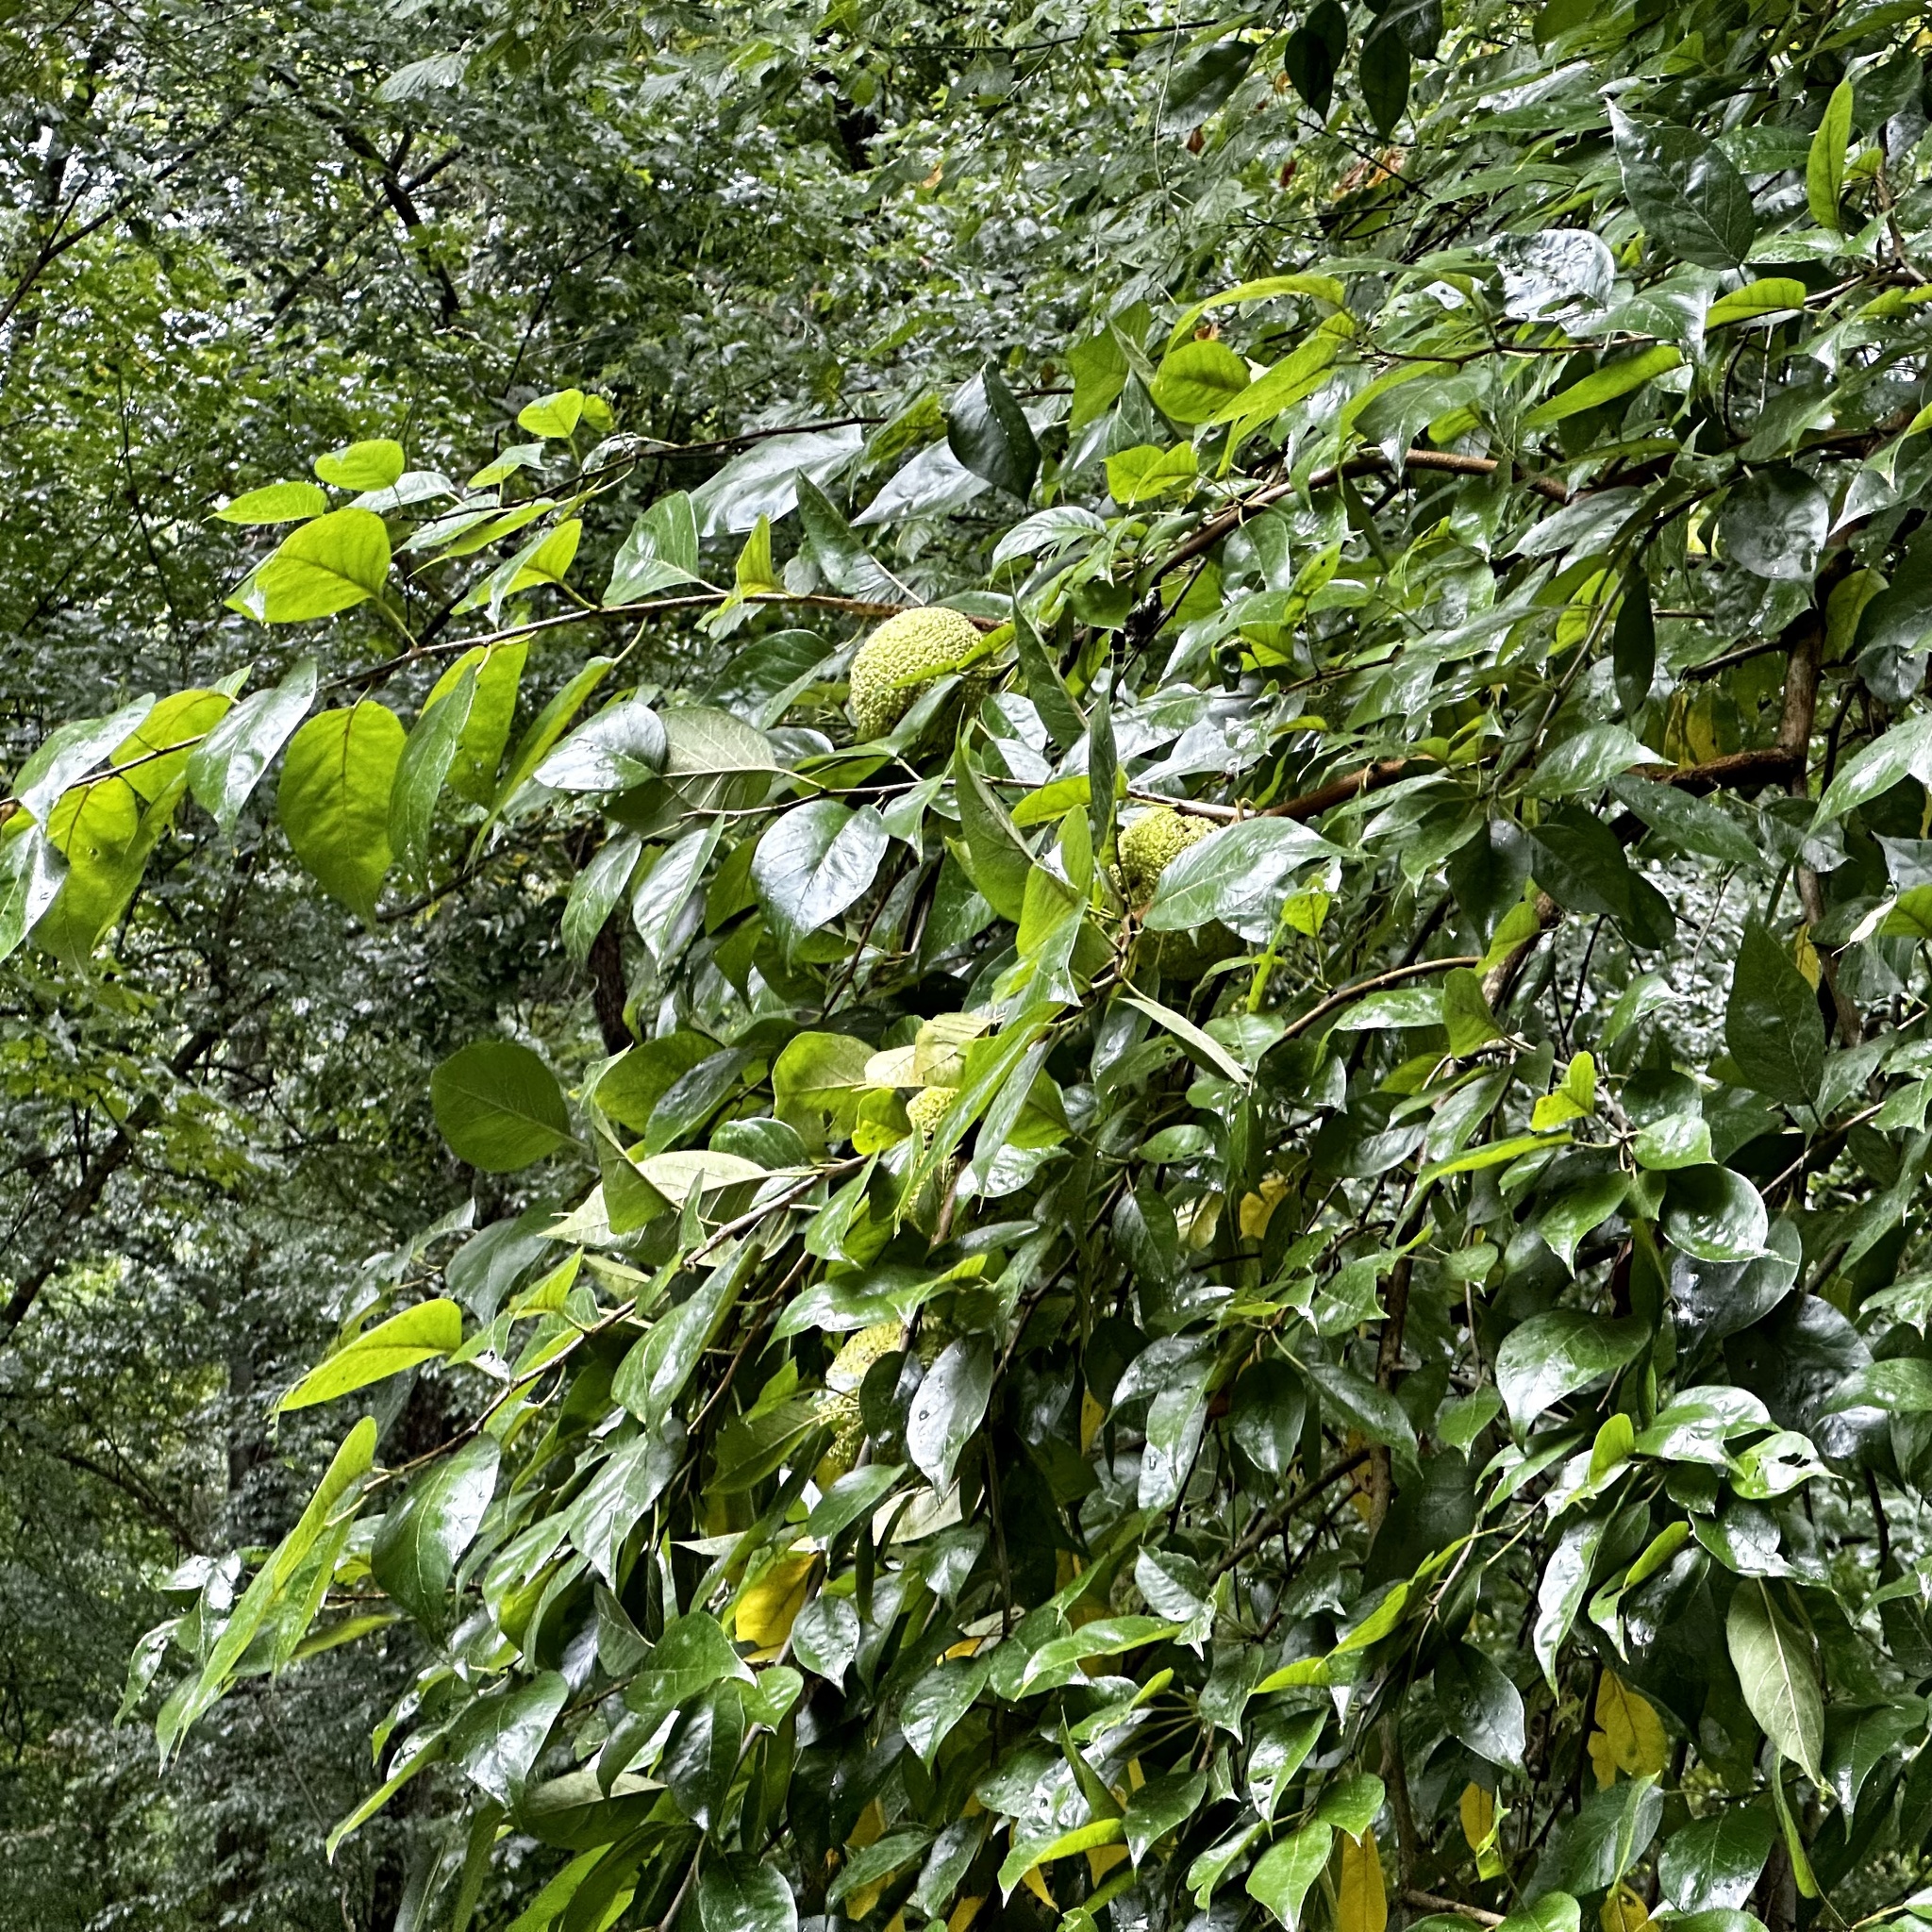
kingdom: Plantae
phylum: Tracheophyta
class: Magnoliopsida
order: Rosales
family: Moraceae
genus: Maclura
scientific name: Maclura pomifera
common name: Osage-orange
